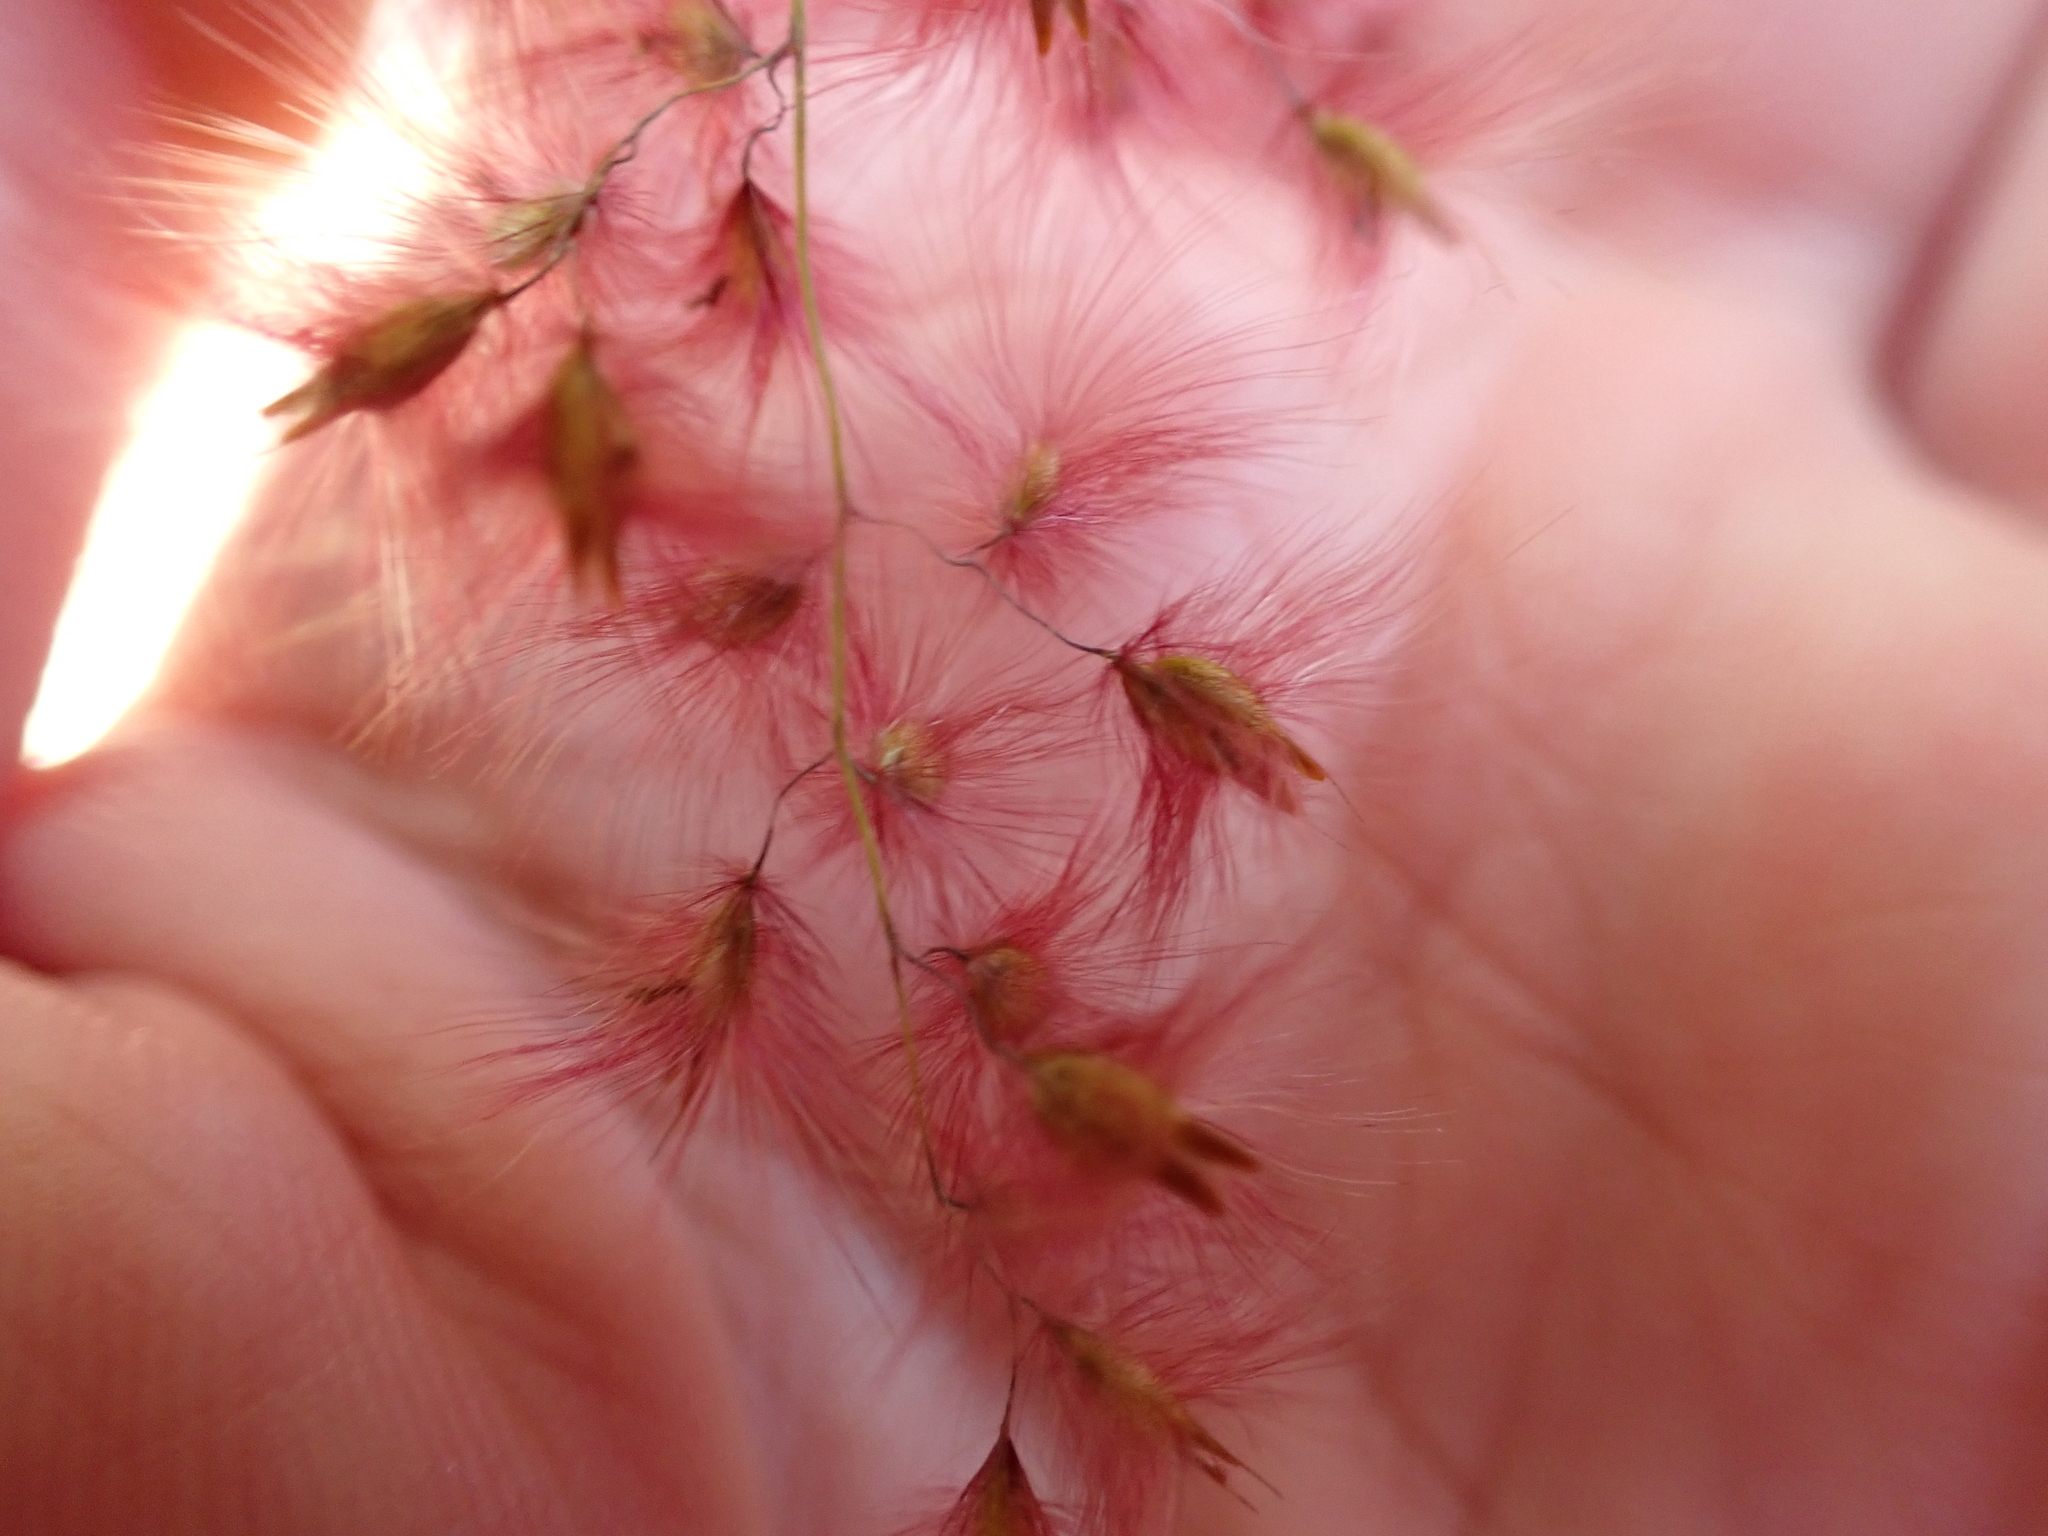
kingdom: Plantae
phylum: Tracheophyta
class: Liliopsida
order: Poales
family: Poaceae
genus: Melinis
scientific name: Melinis repens
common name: Rose natal grass
